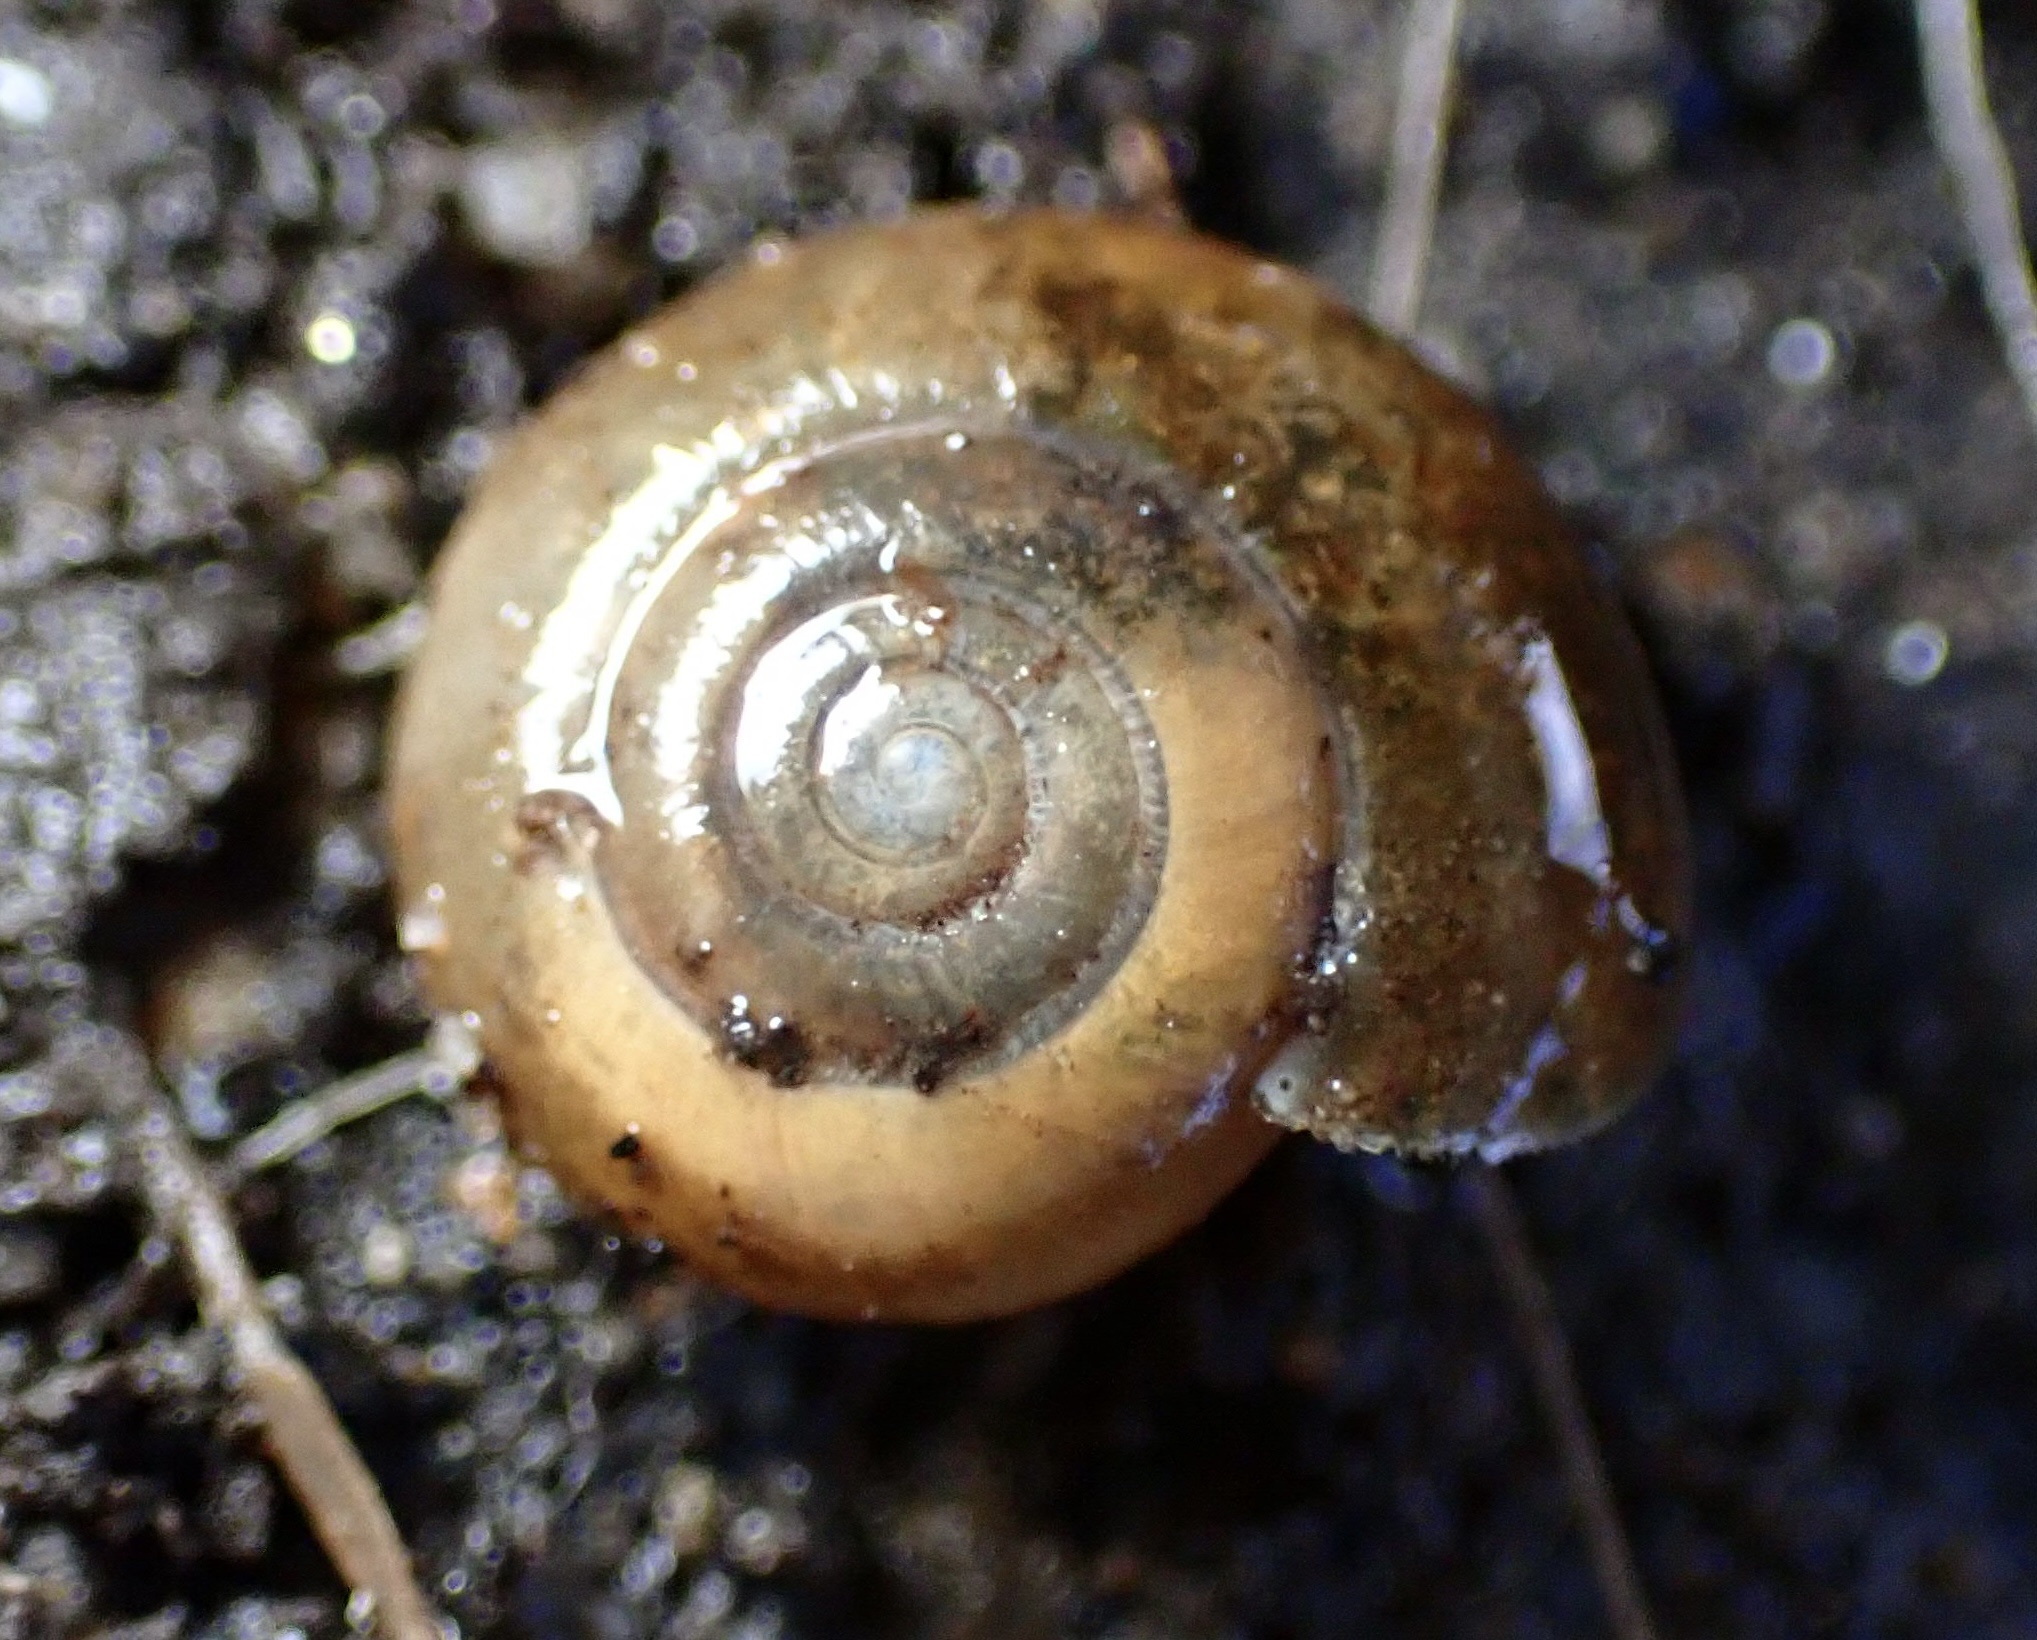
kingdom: Animalia
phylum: Mollusca
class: Gastropoda
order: Stylommatophora
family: Oxychilidae
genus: Oxychilus
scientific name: Oxychilus
